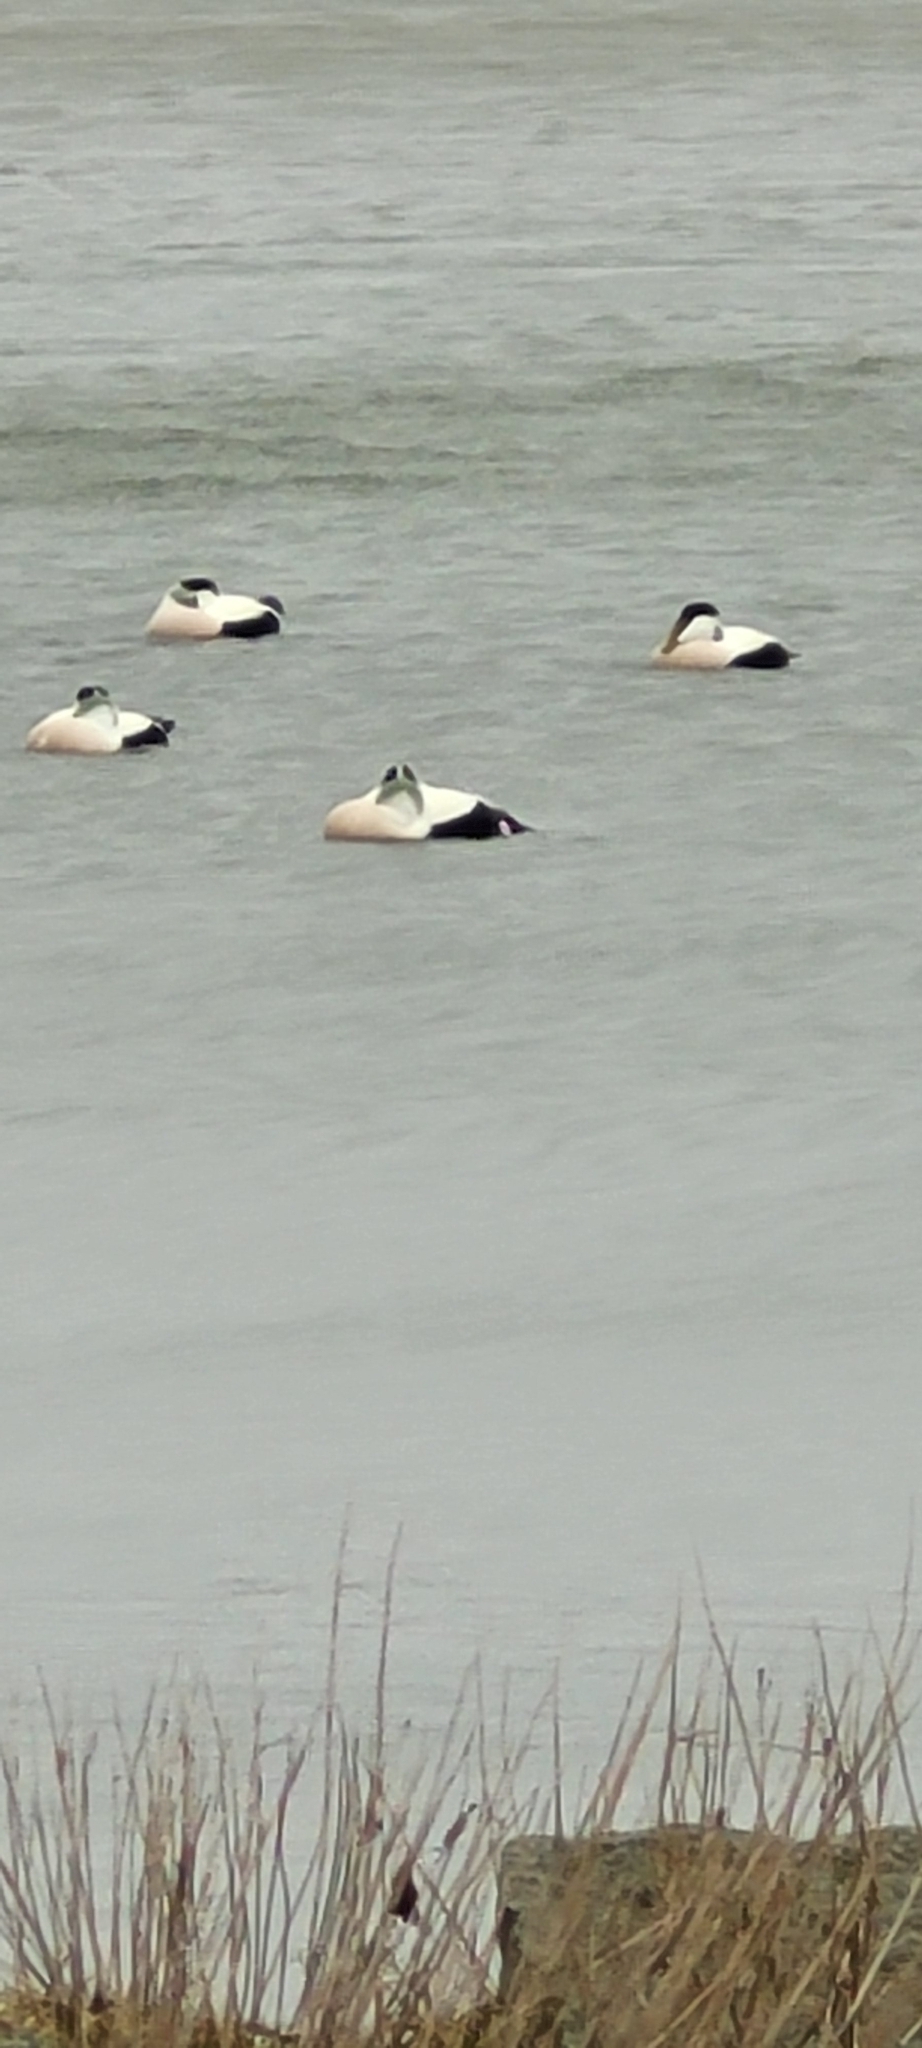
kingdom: Animalia
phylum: Chordata
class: Aves
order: Anseriformes
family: Anatidae
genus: Somateria
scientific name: Somateria mollissima
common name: Common eider
